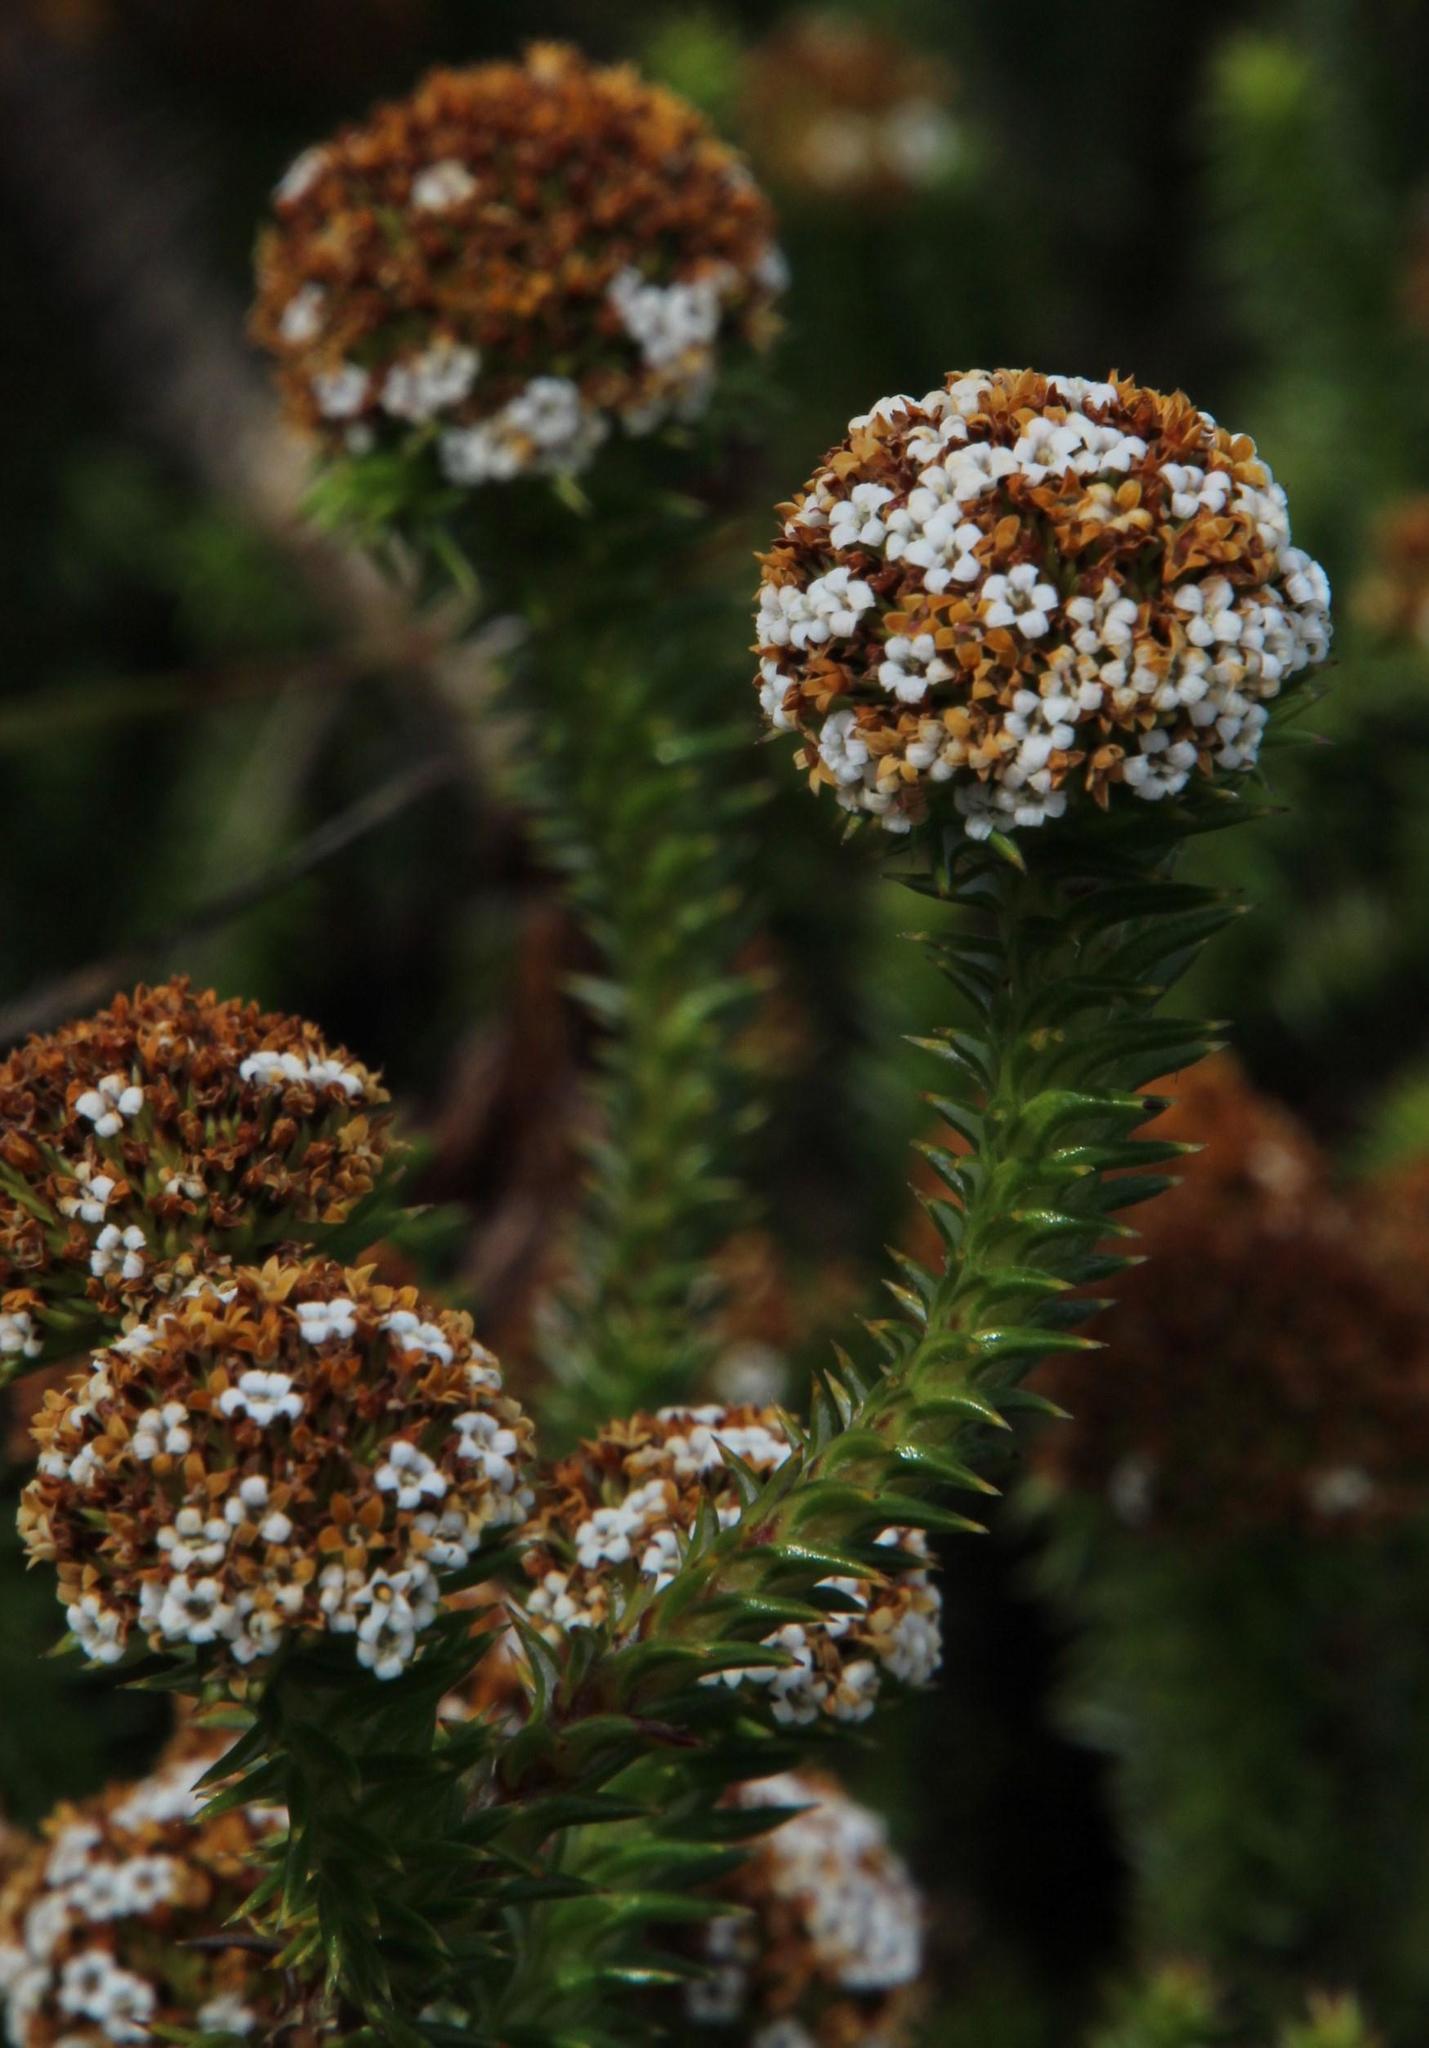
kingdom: Plantae
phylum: Tracheophyta
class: Magnoliopsida
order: Asterales
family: Asteraceae
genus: Stoebe
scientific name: Stoebe aethiopica
